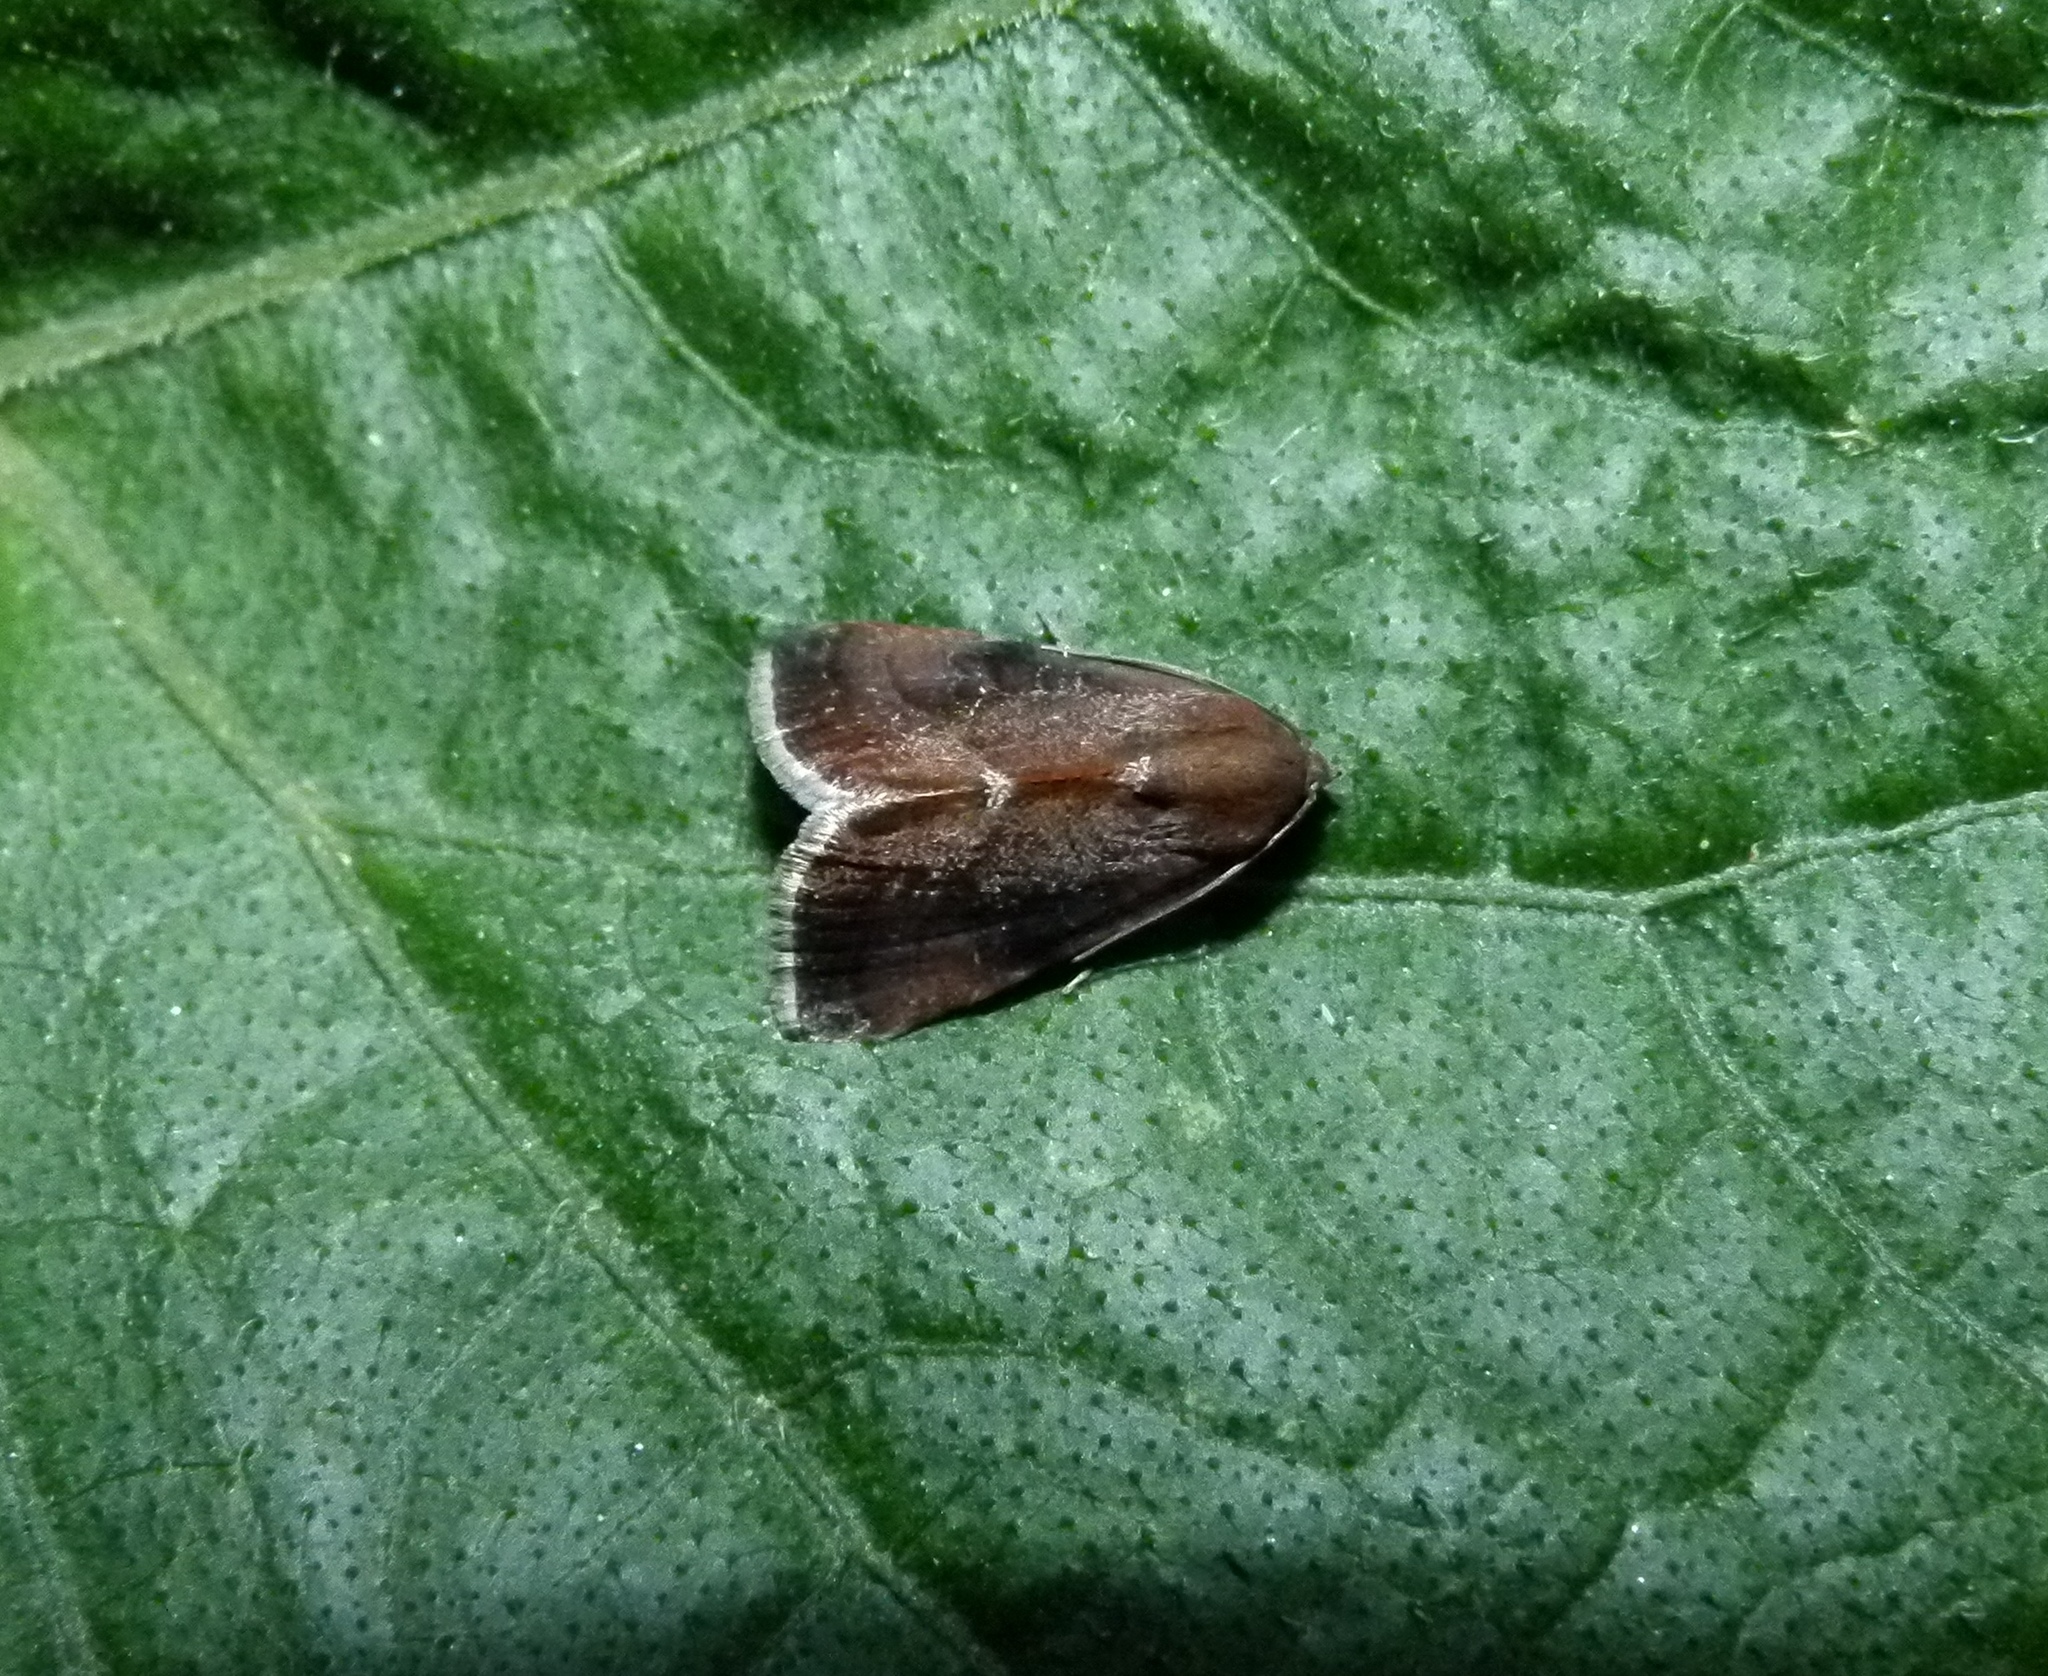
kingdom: Animalia
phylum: Arthropoda
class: Insecta
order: Lepidoptera
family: Noctuidae
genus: Galgula
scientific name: Galgula partita
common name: Wedgeling
